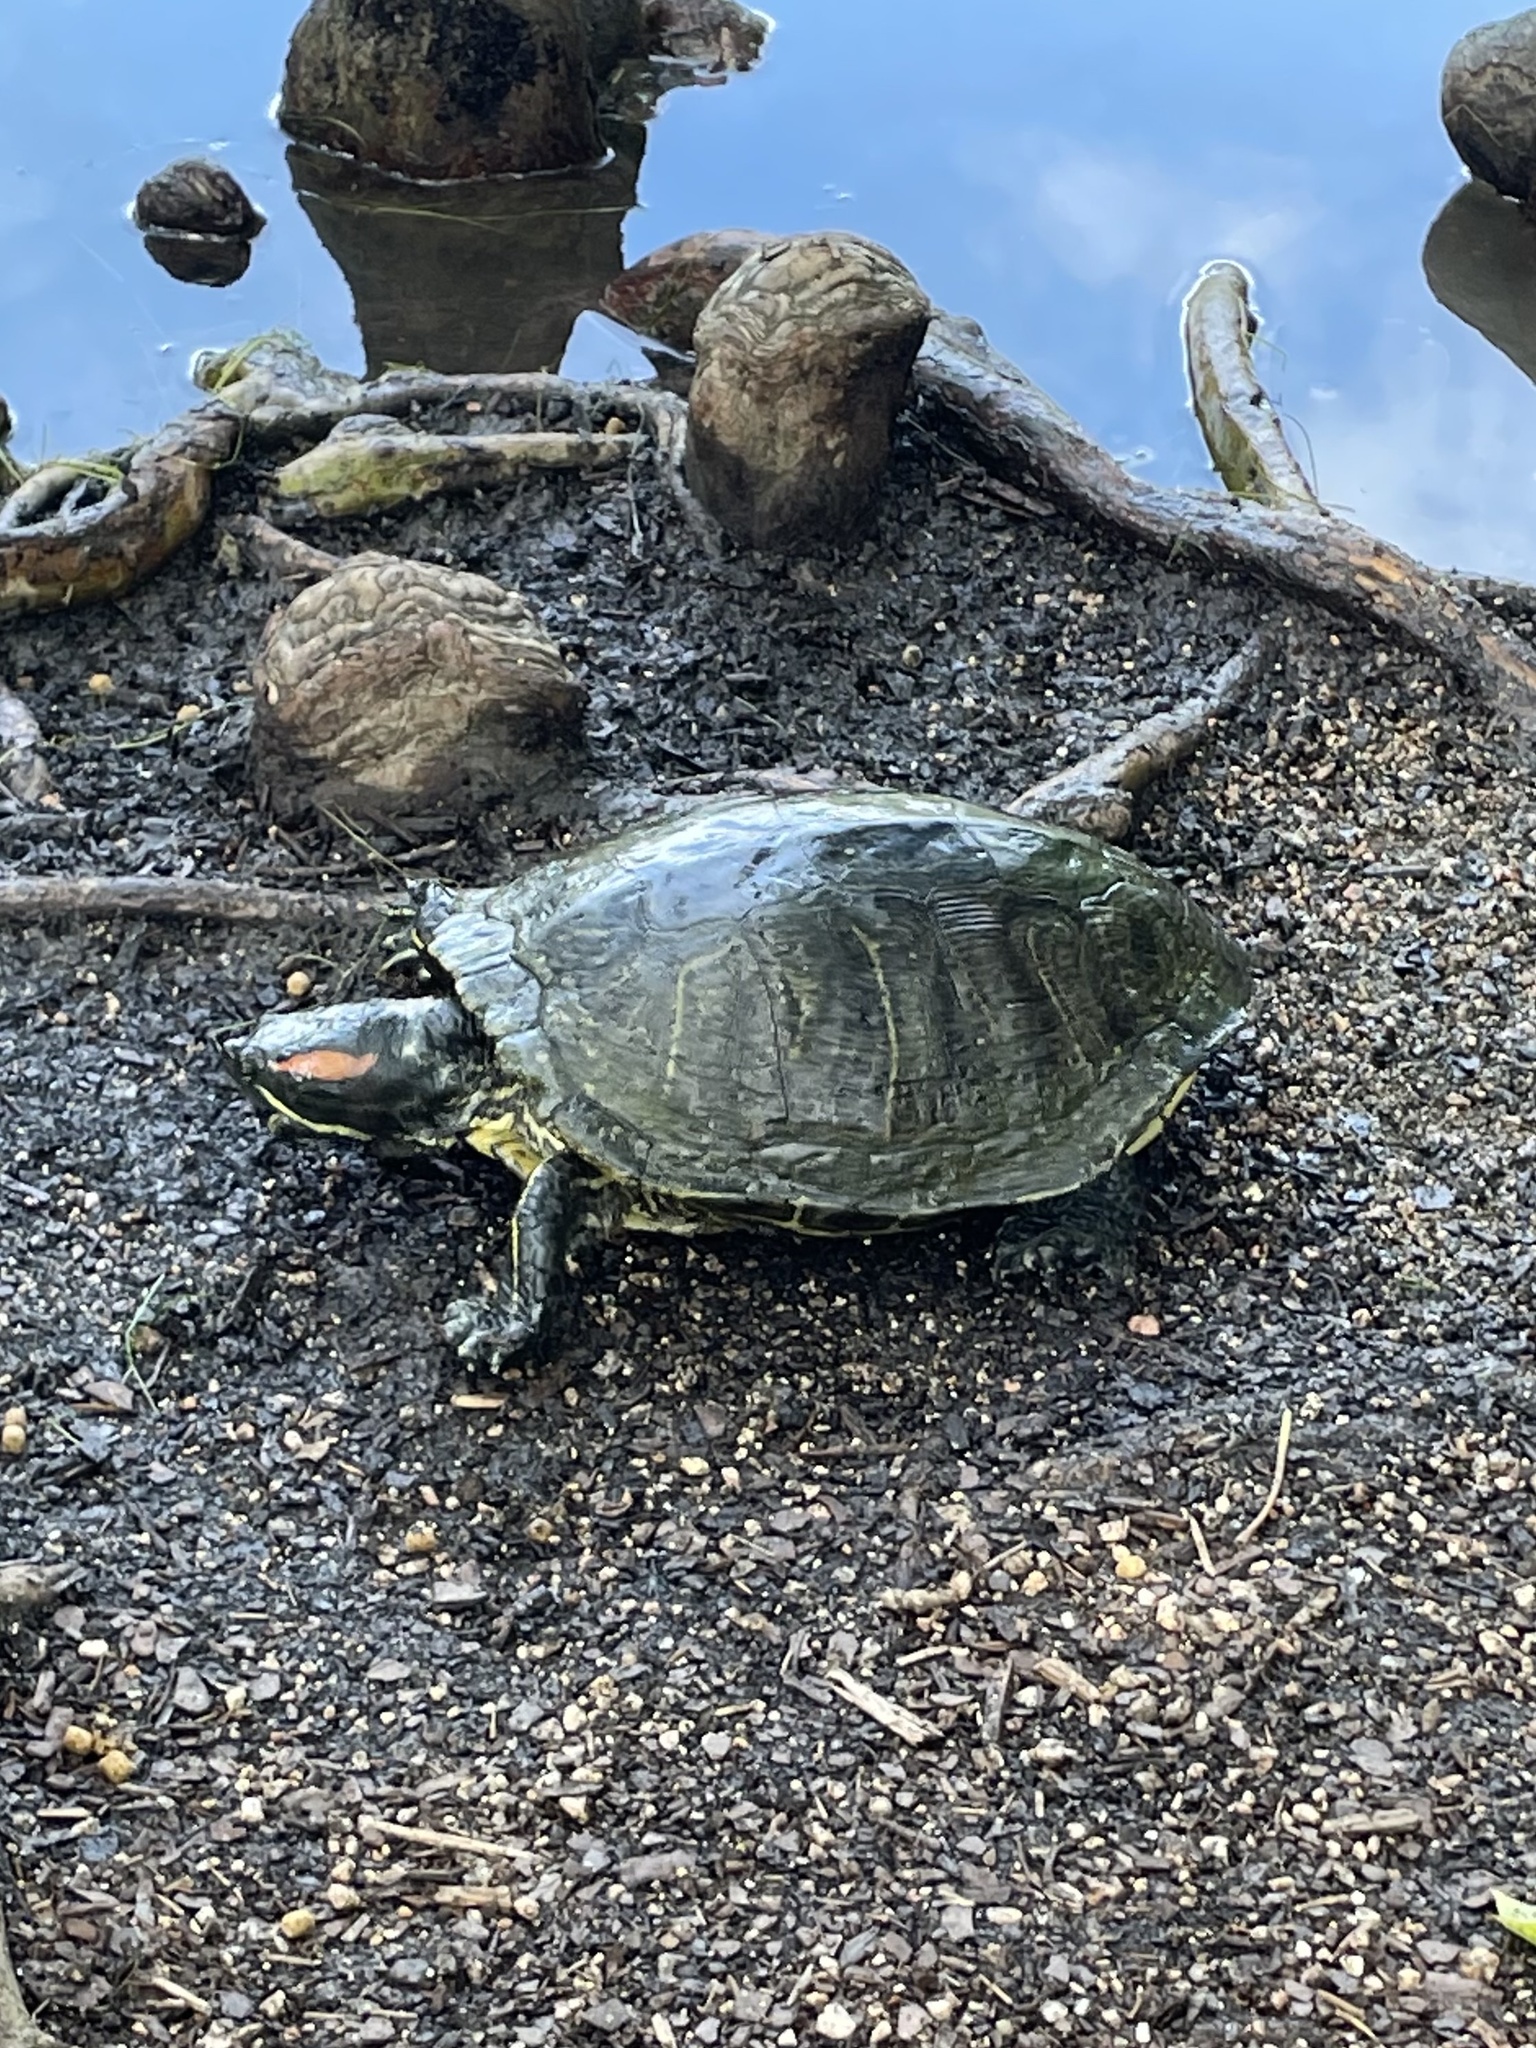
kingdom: Animalia
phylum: Chordata
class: Testudines
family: Emydidae
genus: Trachemys
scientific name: Trachemys scripta
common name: Slider
